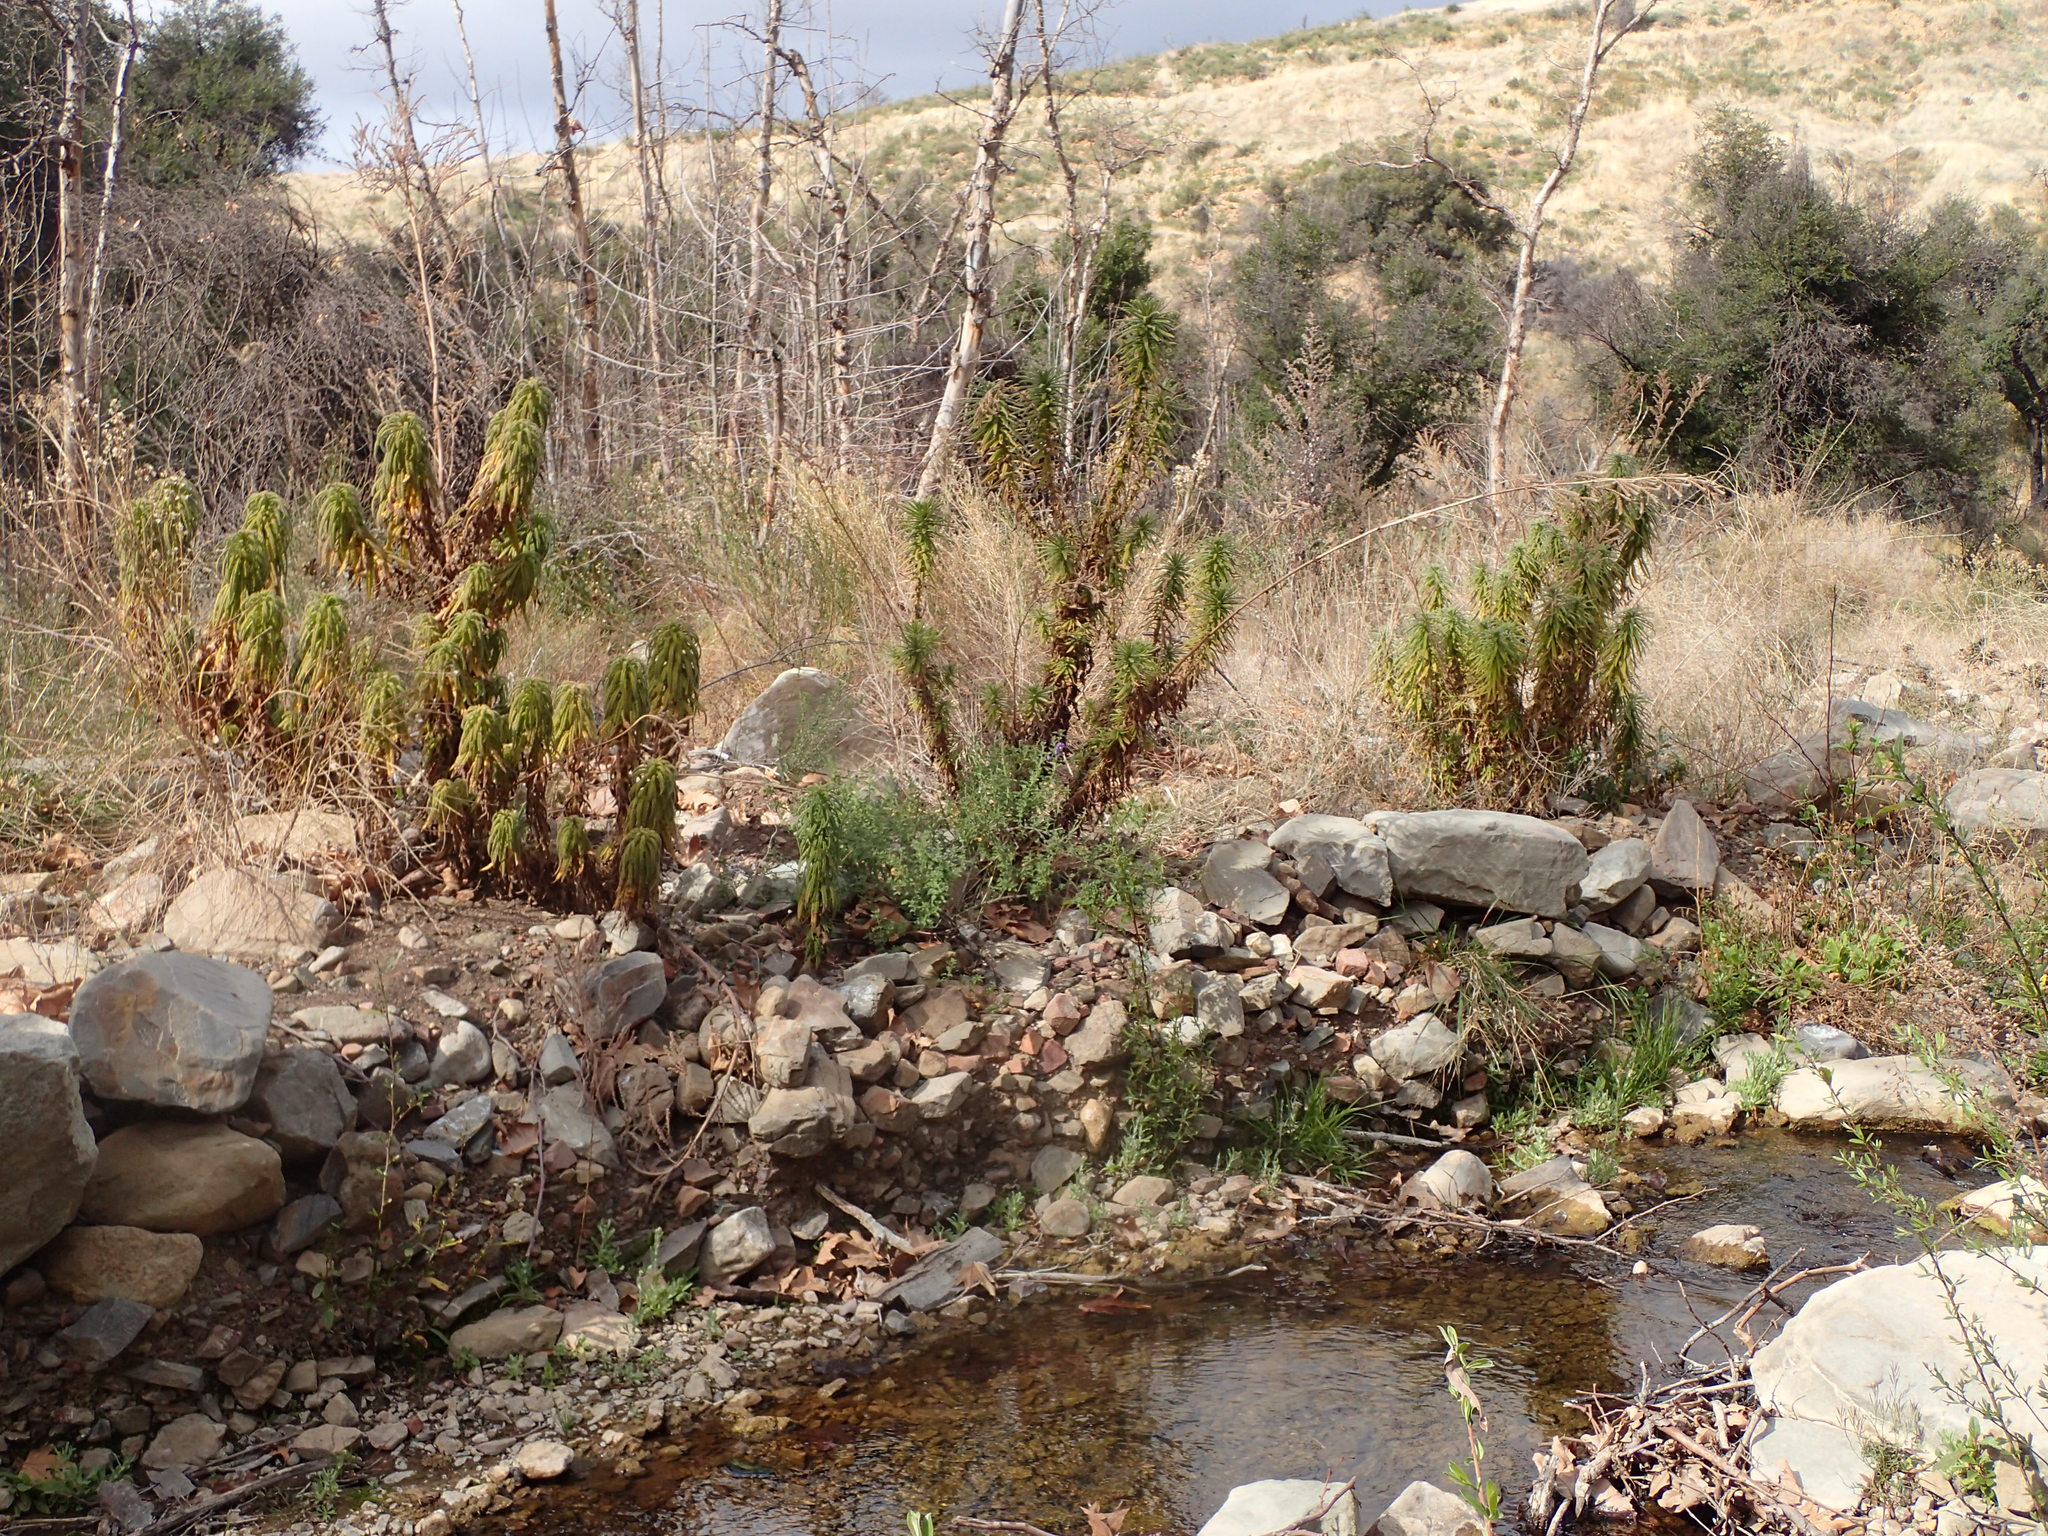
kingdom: Plantae
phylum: Tracheophyta
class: Magnoliopsida
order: Boraginales
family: Namaceae
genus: Turricula
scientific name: Turricula parryi
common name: Poodle-dog-bush
